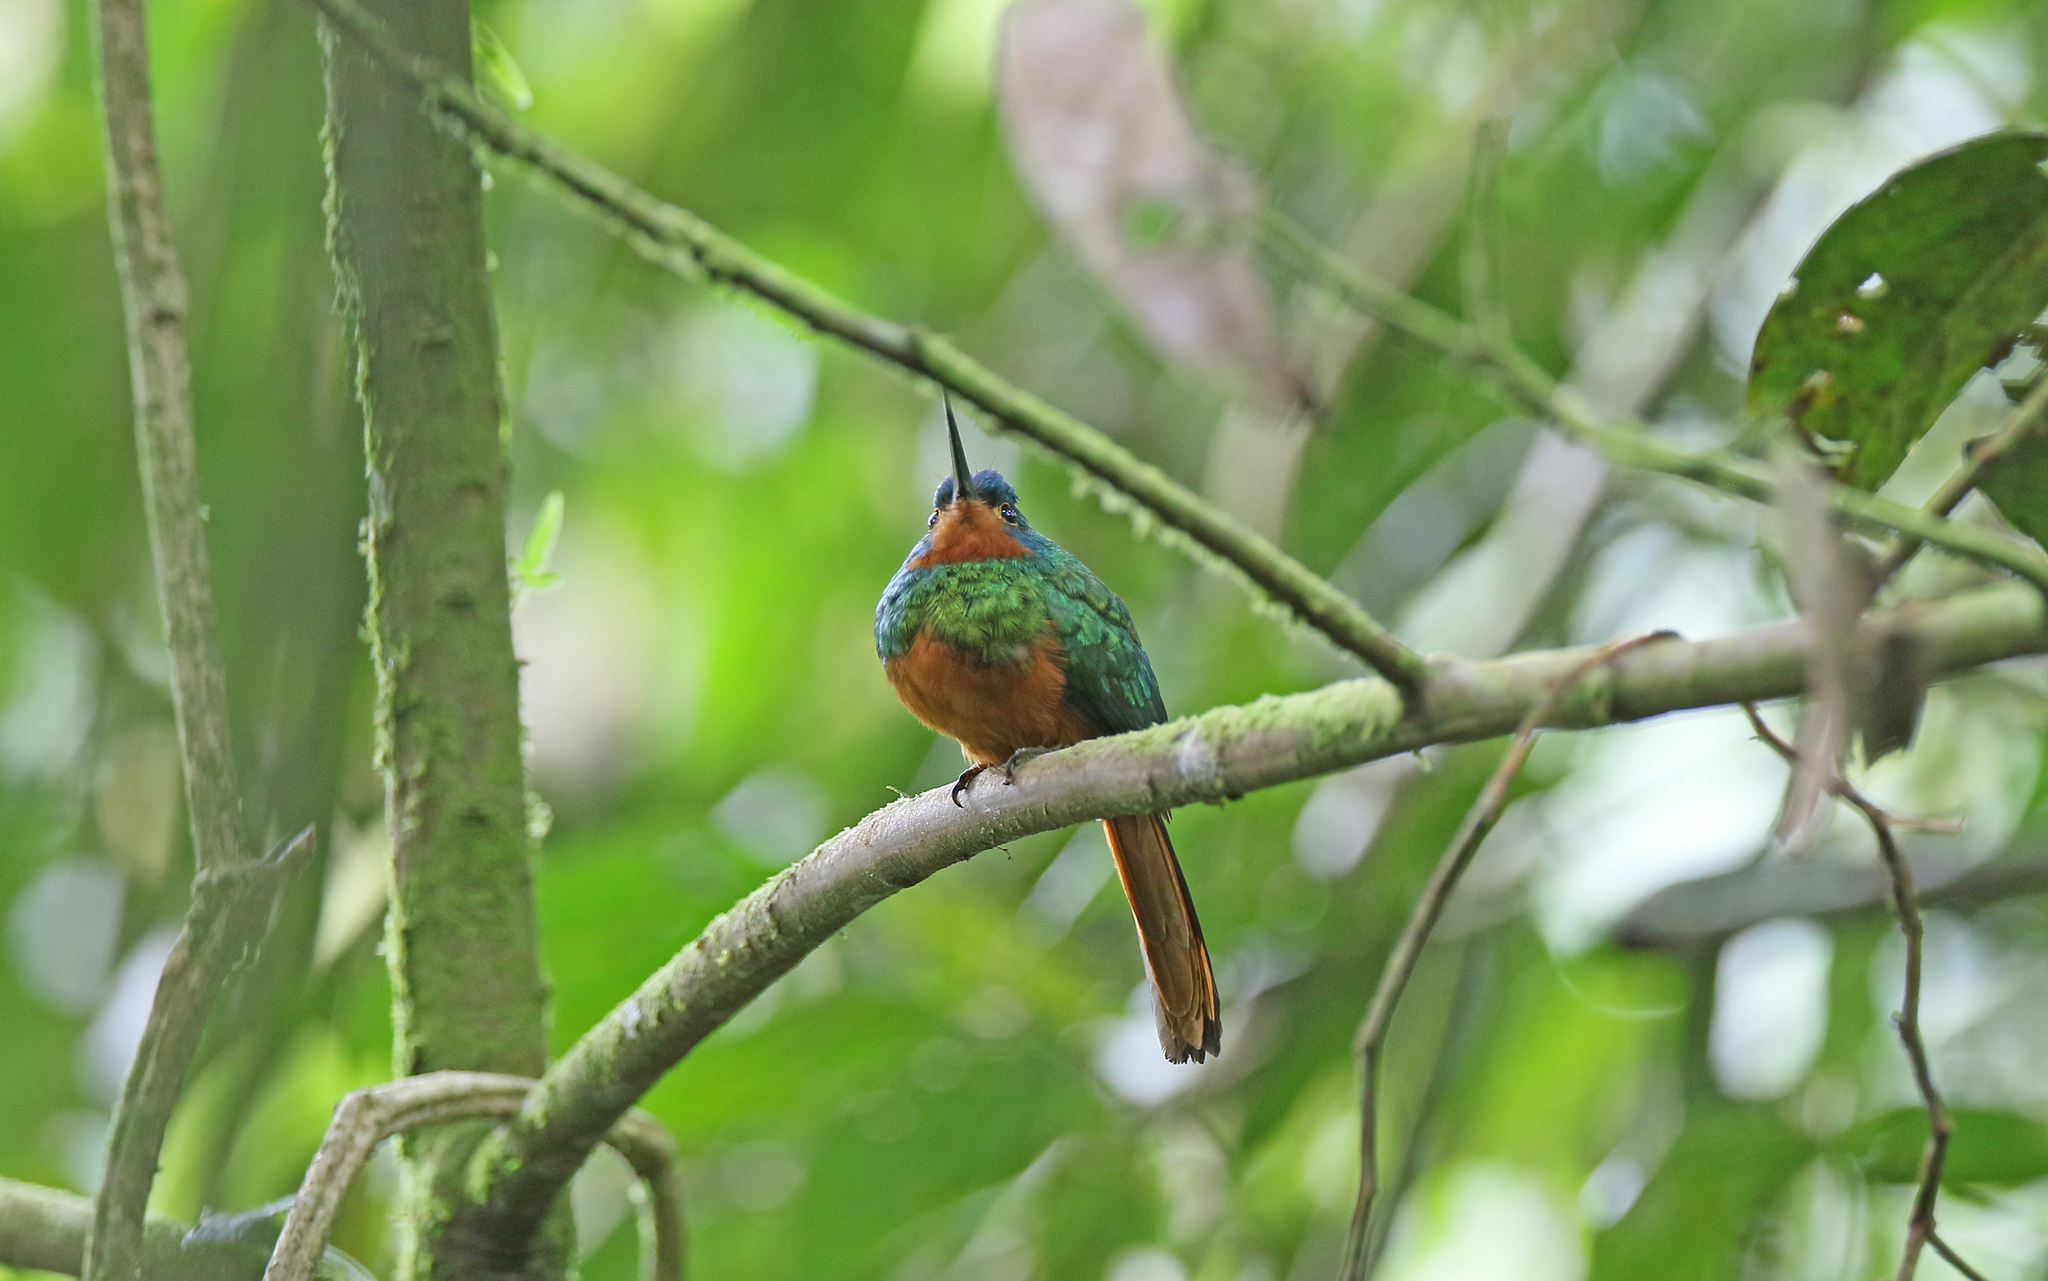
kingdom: Animalia
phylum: Chordata
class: Aves
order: Piciformes
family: Galbulidae
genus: Galbula
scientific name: Galbula pastazae
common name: Coppery-chested jacamar
